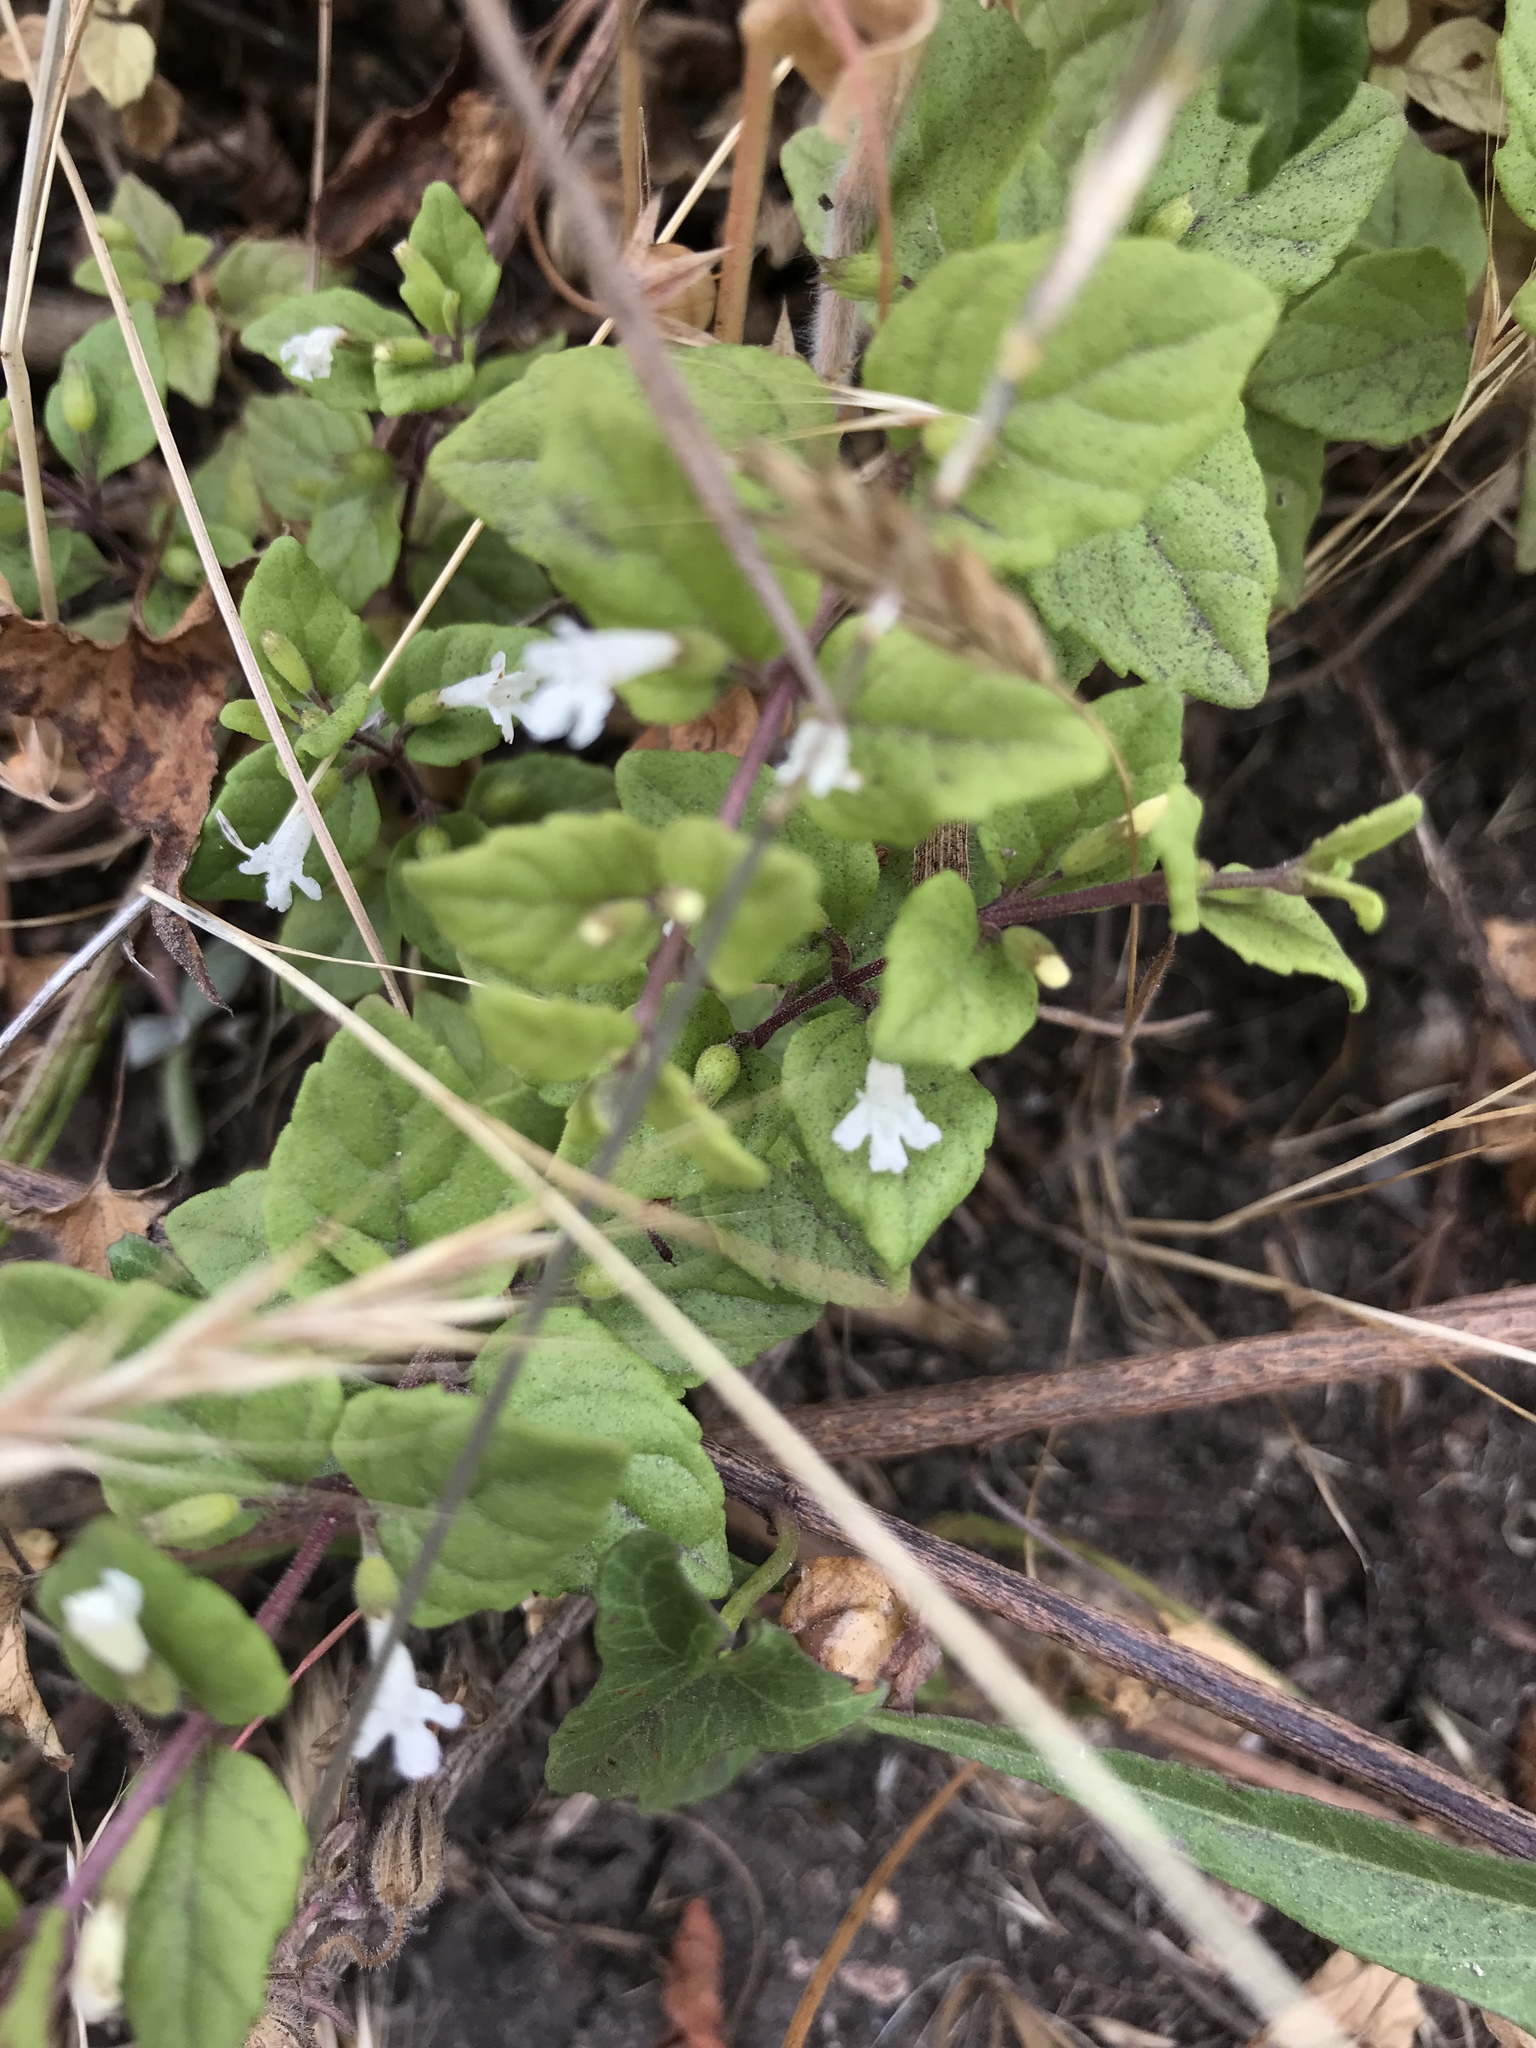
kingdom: Plantae
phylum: Tracheophyta
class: Magnoliopsida
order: Lamiales
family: Lamiaceae
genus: Micromeria
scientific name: Micromeria douglasii
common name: Yerba buena
